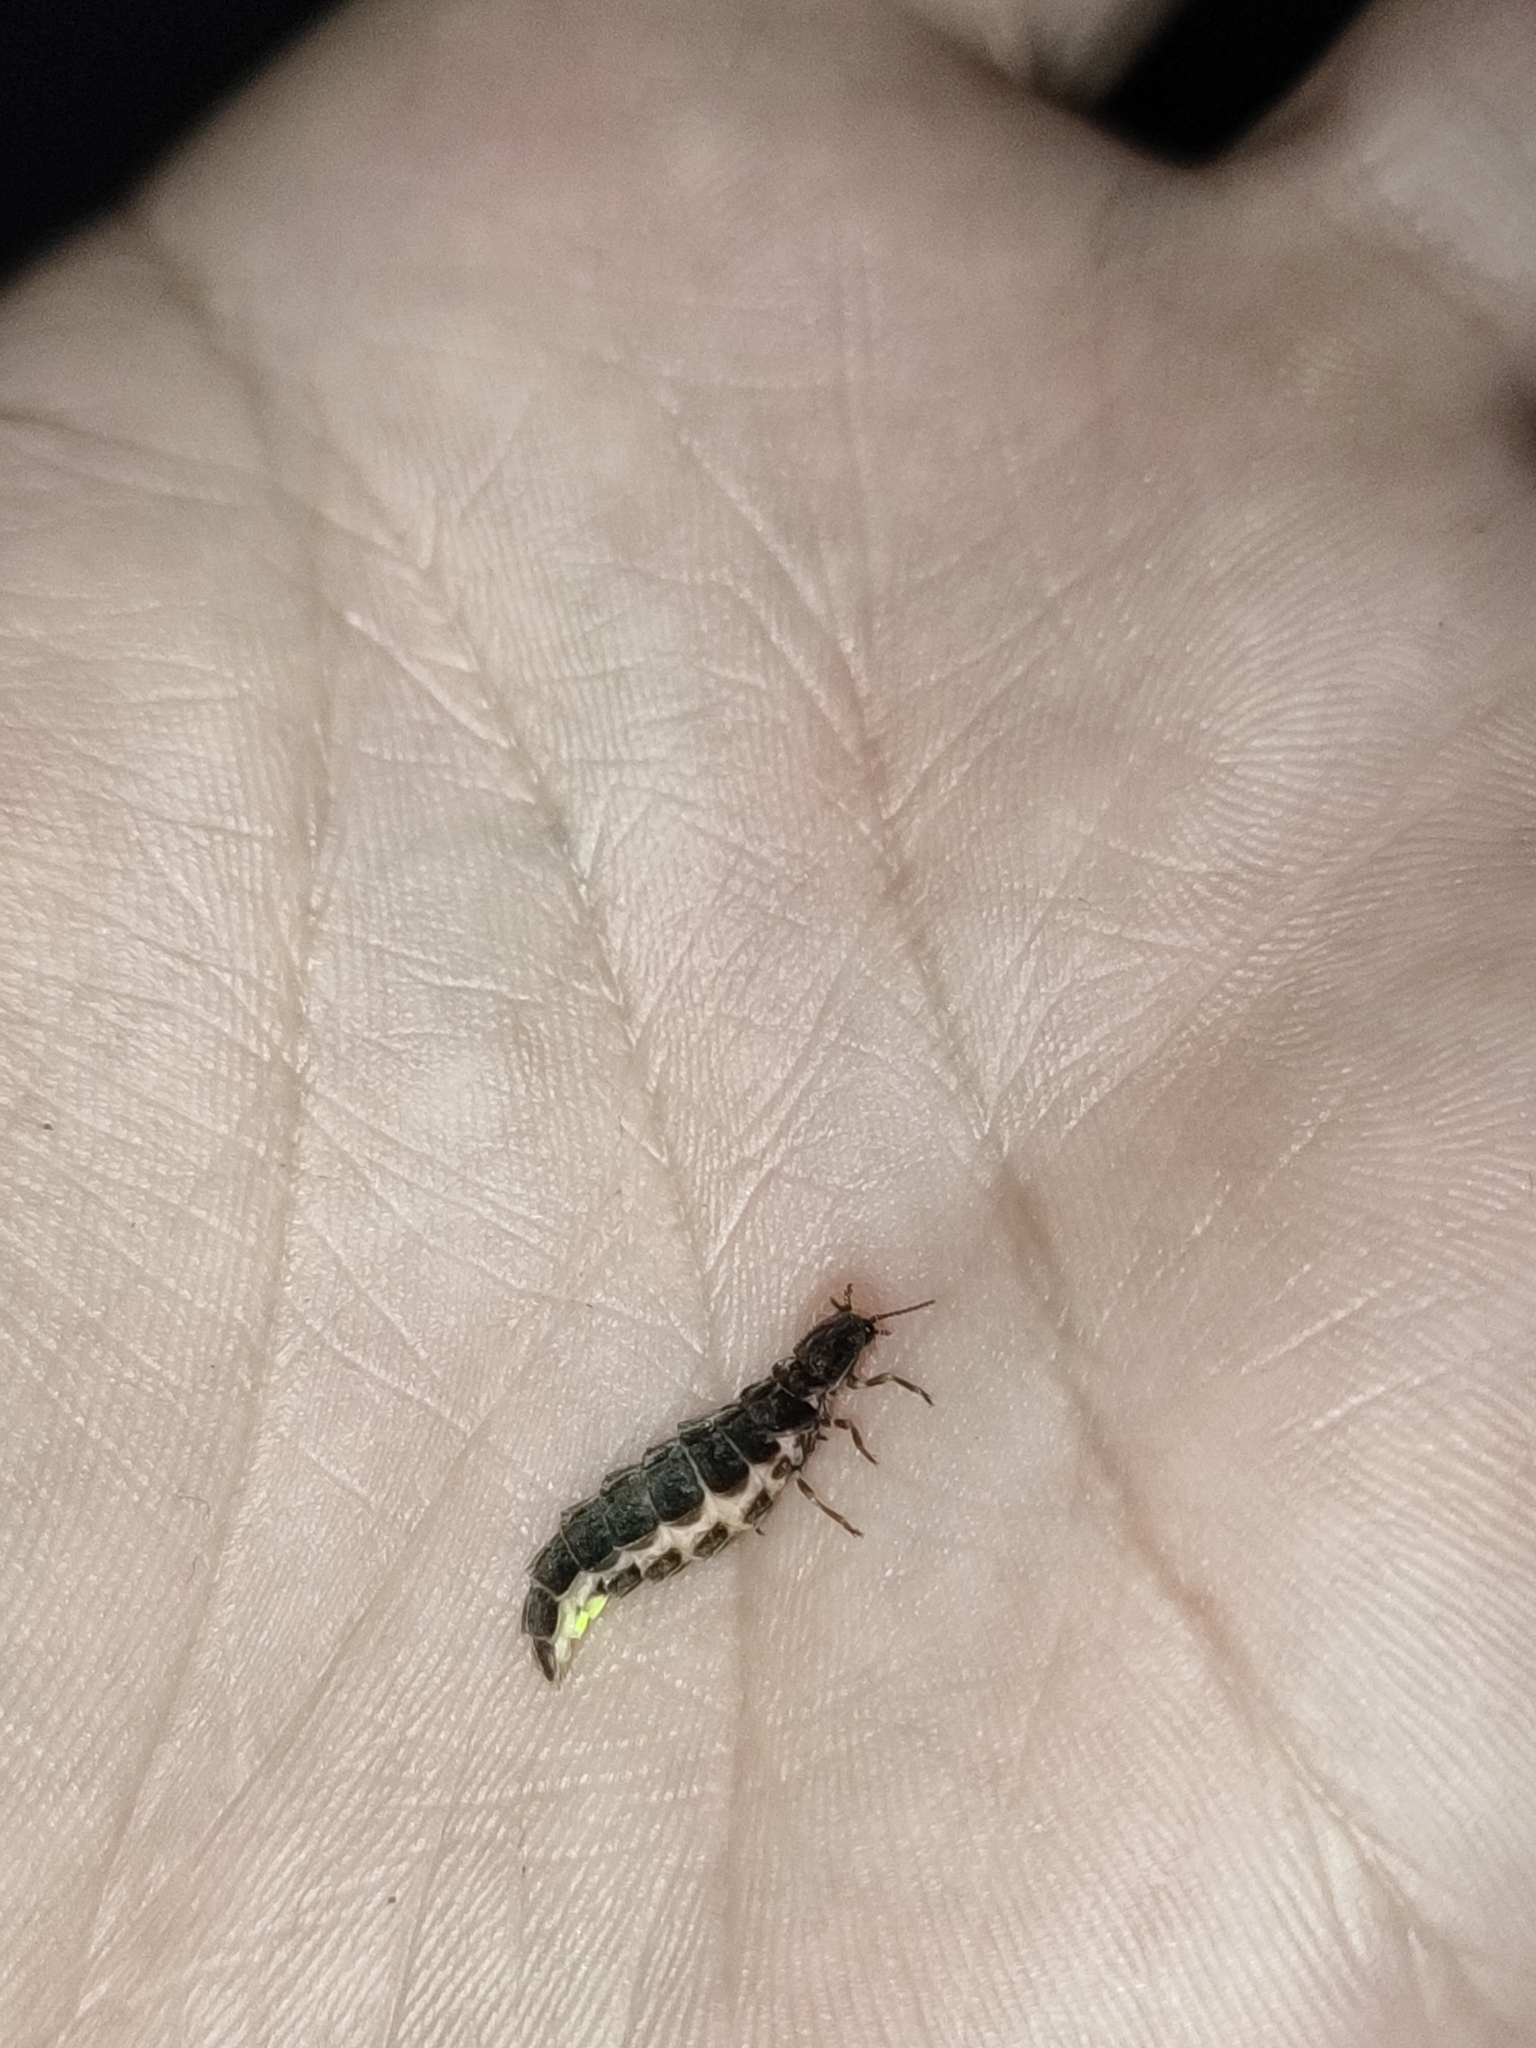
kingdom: Animalia
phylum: Arthropoda
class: Insecta
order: Coleoptera
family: Lampyridae
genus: Lampyris
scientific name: Lampyris noctiluca
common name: Glow-worm
